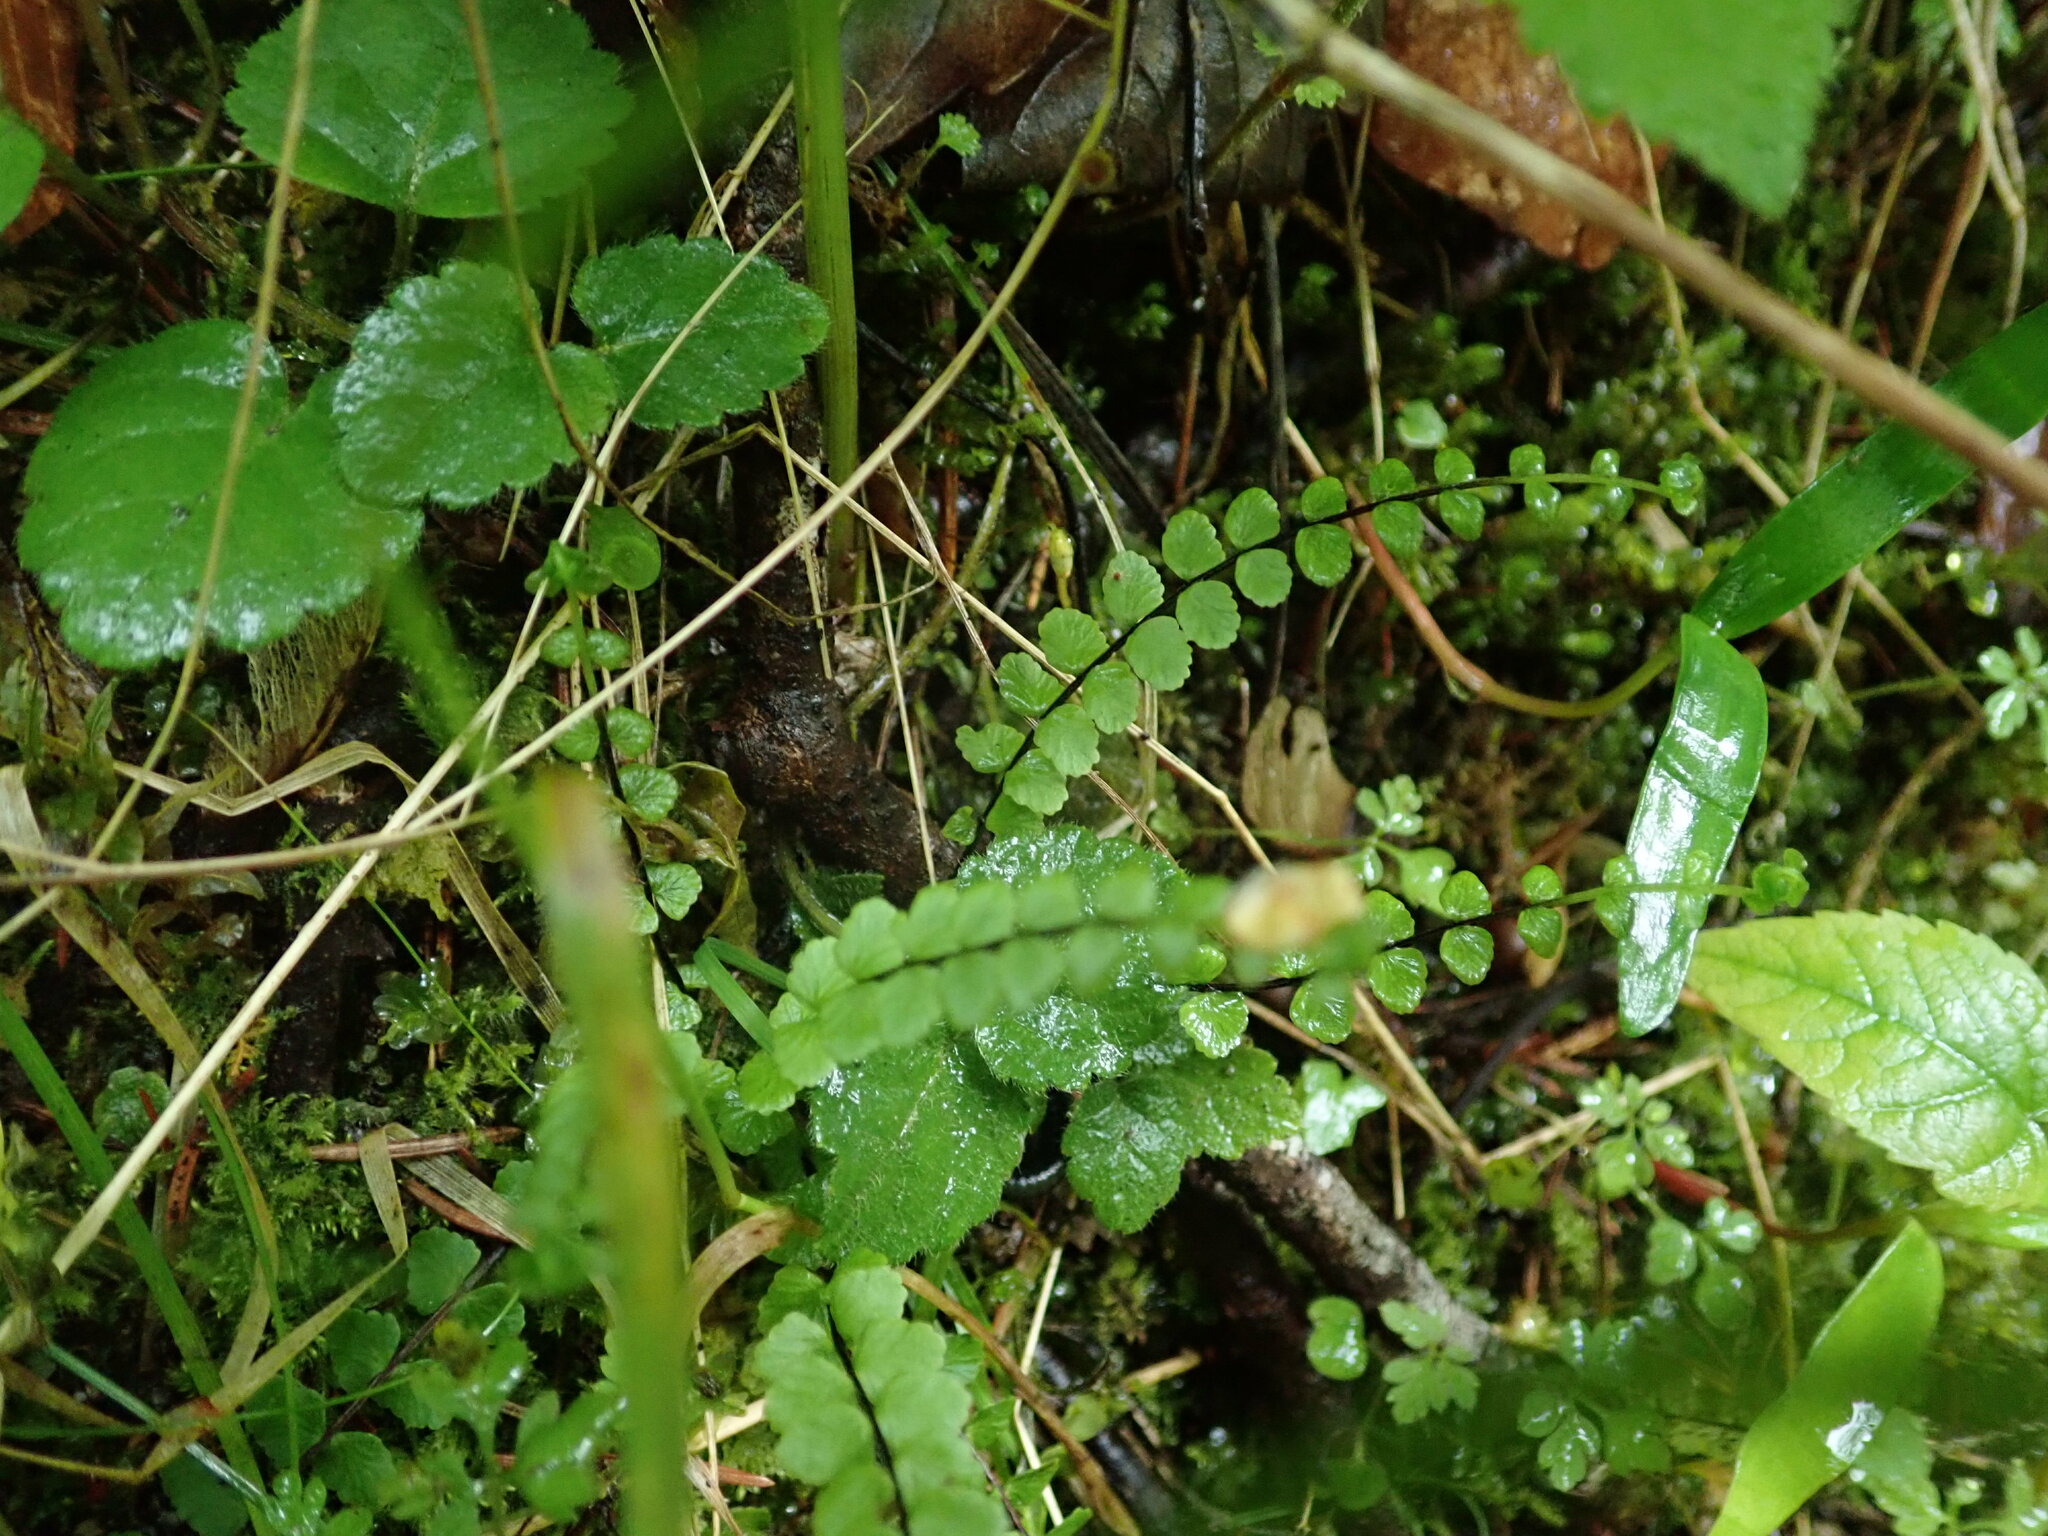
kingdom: Plantae
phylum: Tracheophyta
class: Polypodiopsida
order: Polypodiales
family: Aspleniaceae
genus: Asplenium
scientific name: Asplenium trichomanes
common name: Maidenhair spleenwort
